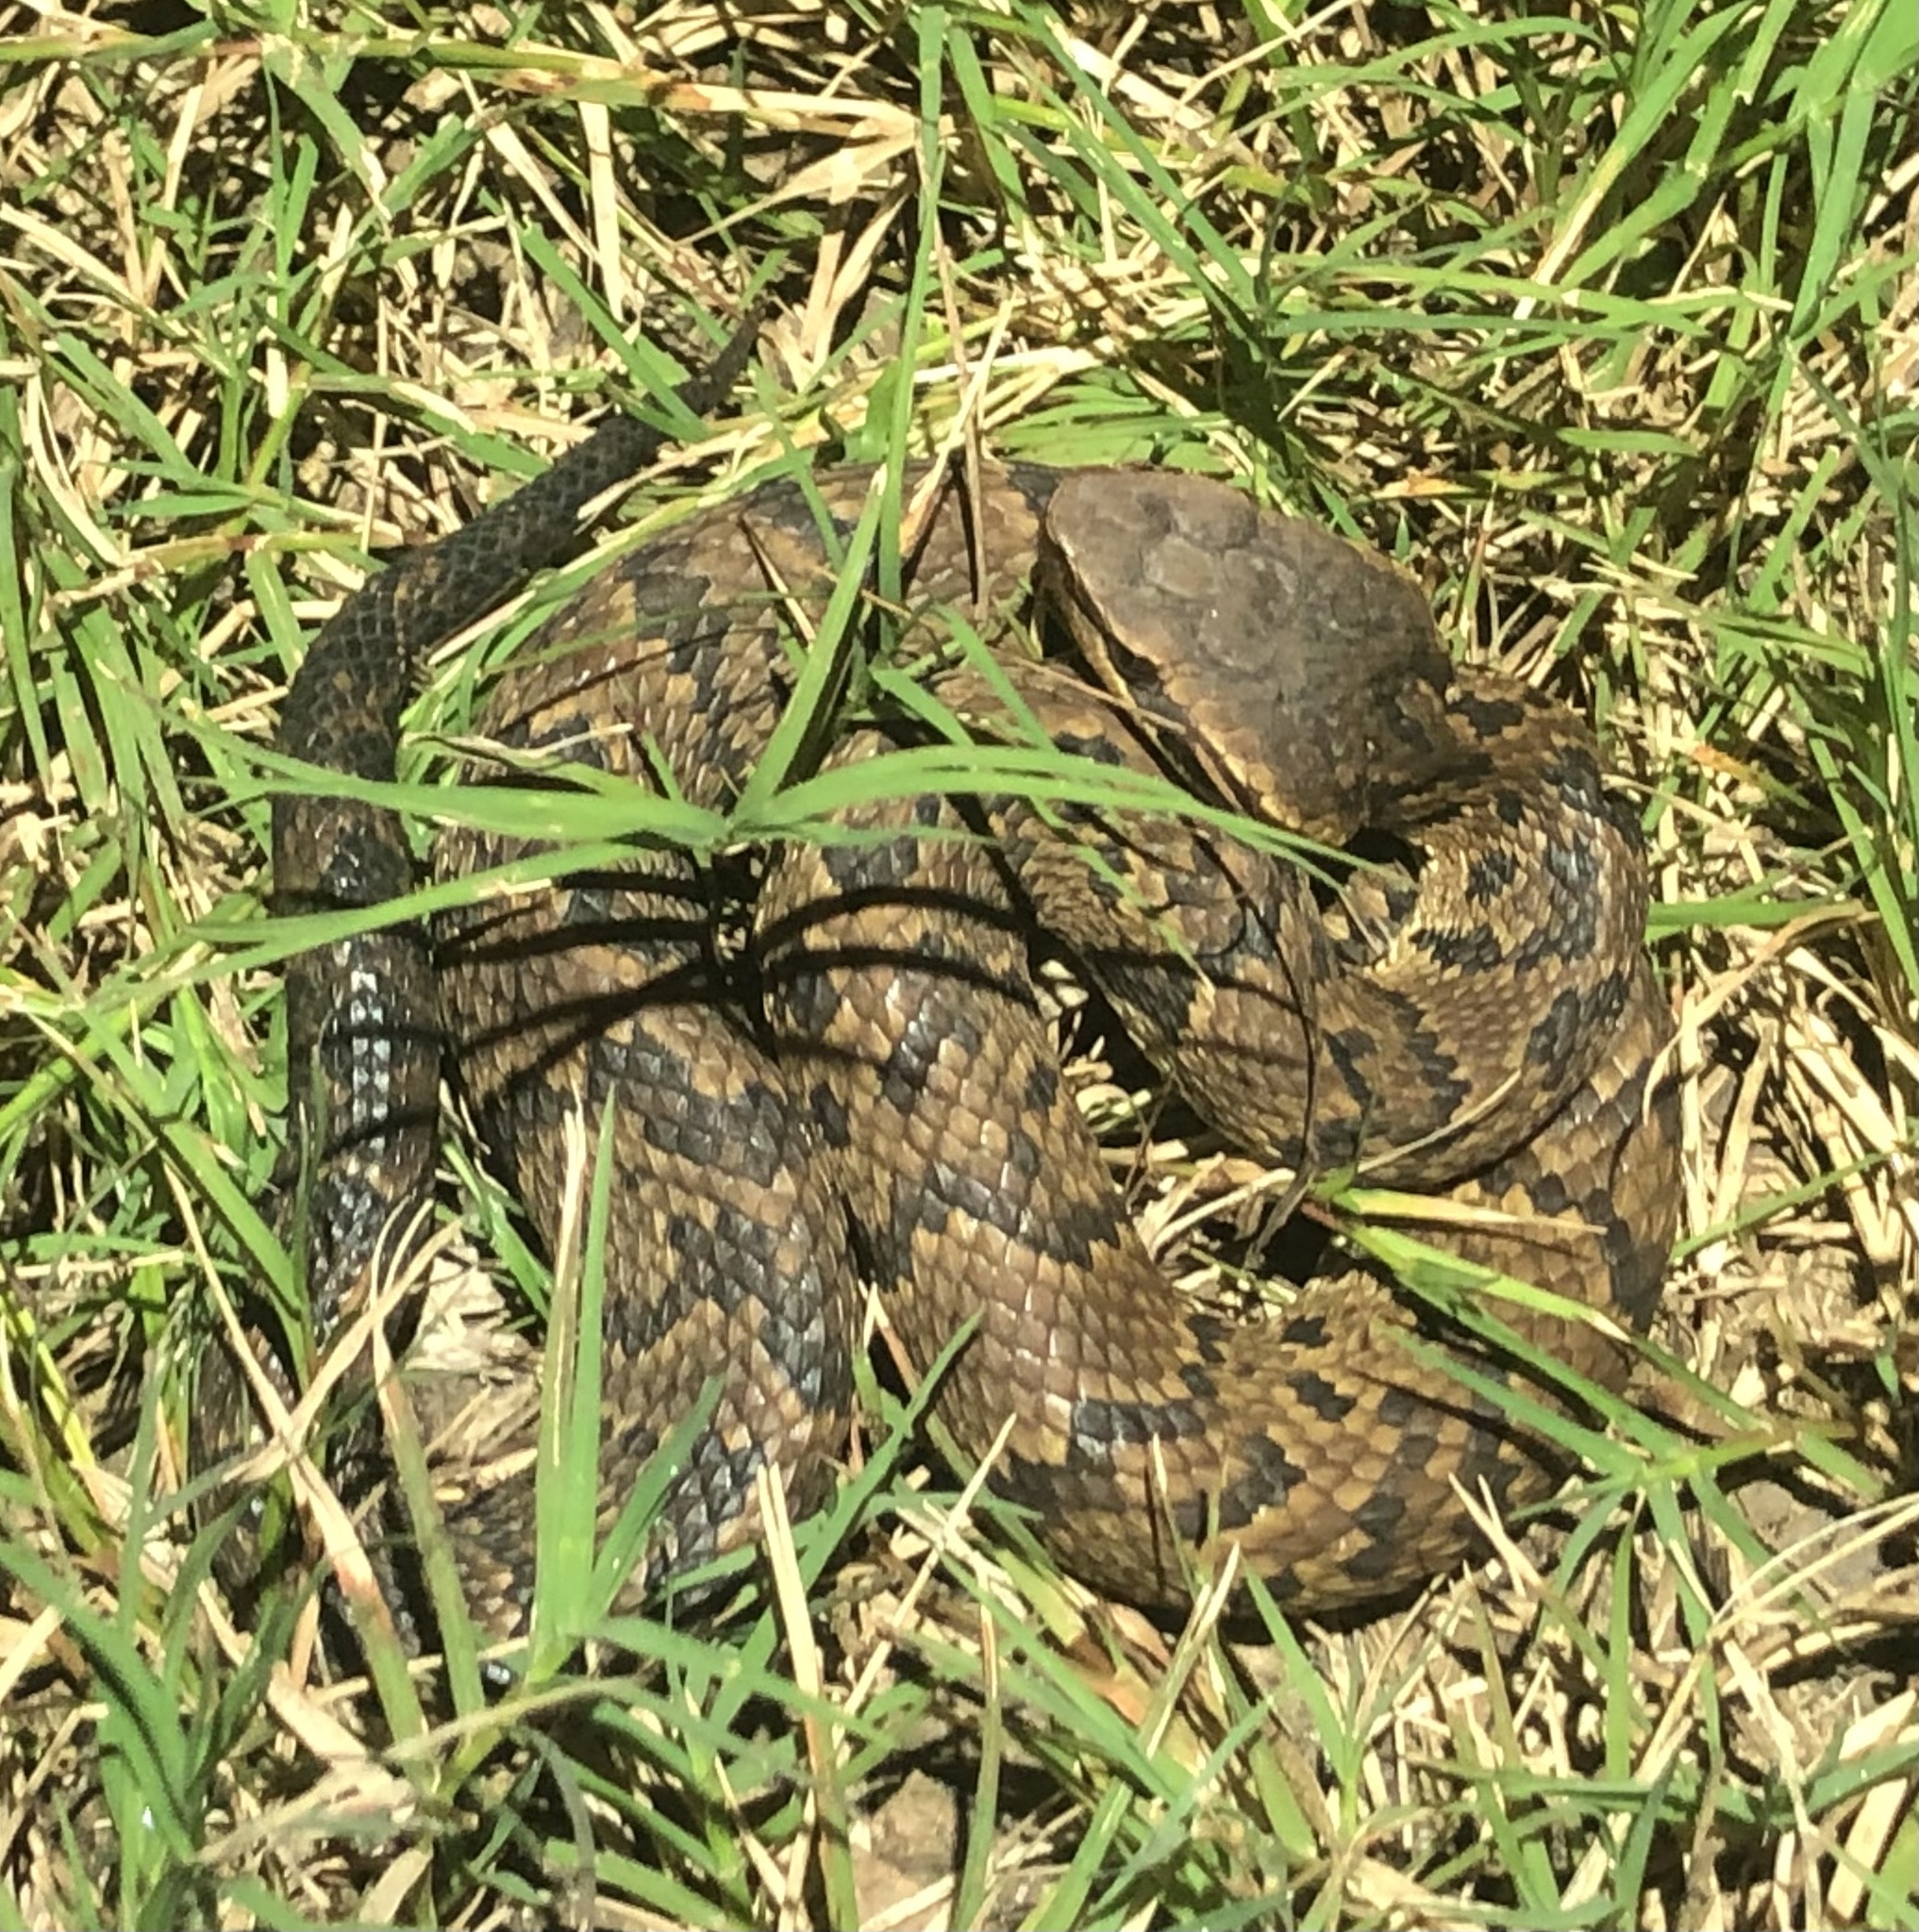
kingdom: Animalia
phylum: Chordata
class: Squamata
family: Viperidae
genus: Agkistrodon
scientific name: Agkistrodon piscivorus
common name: Cottonmouth
